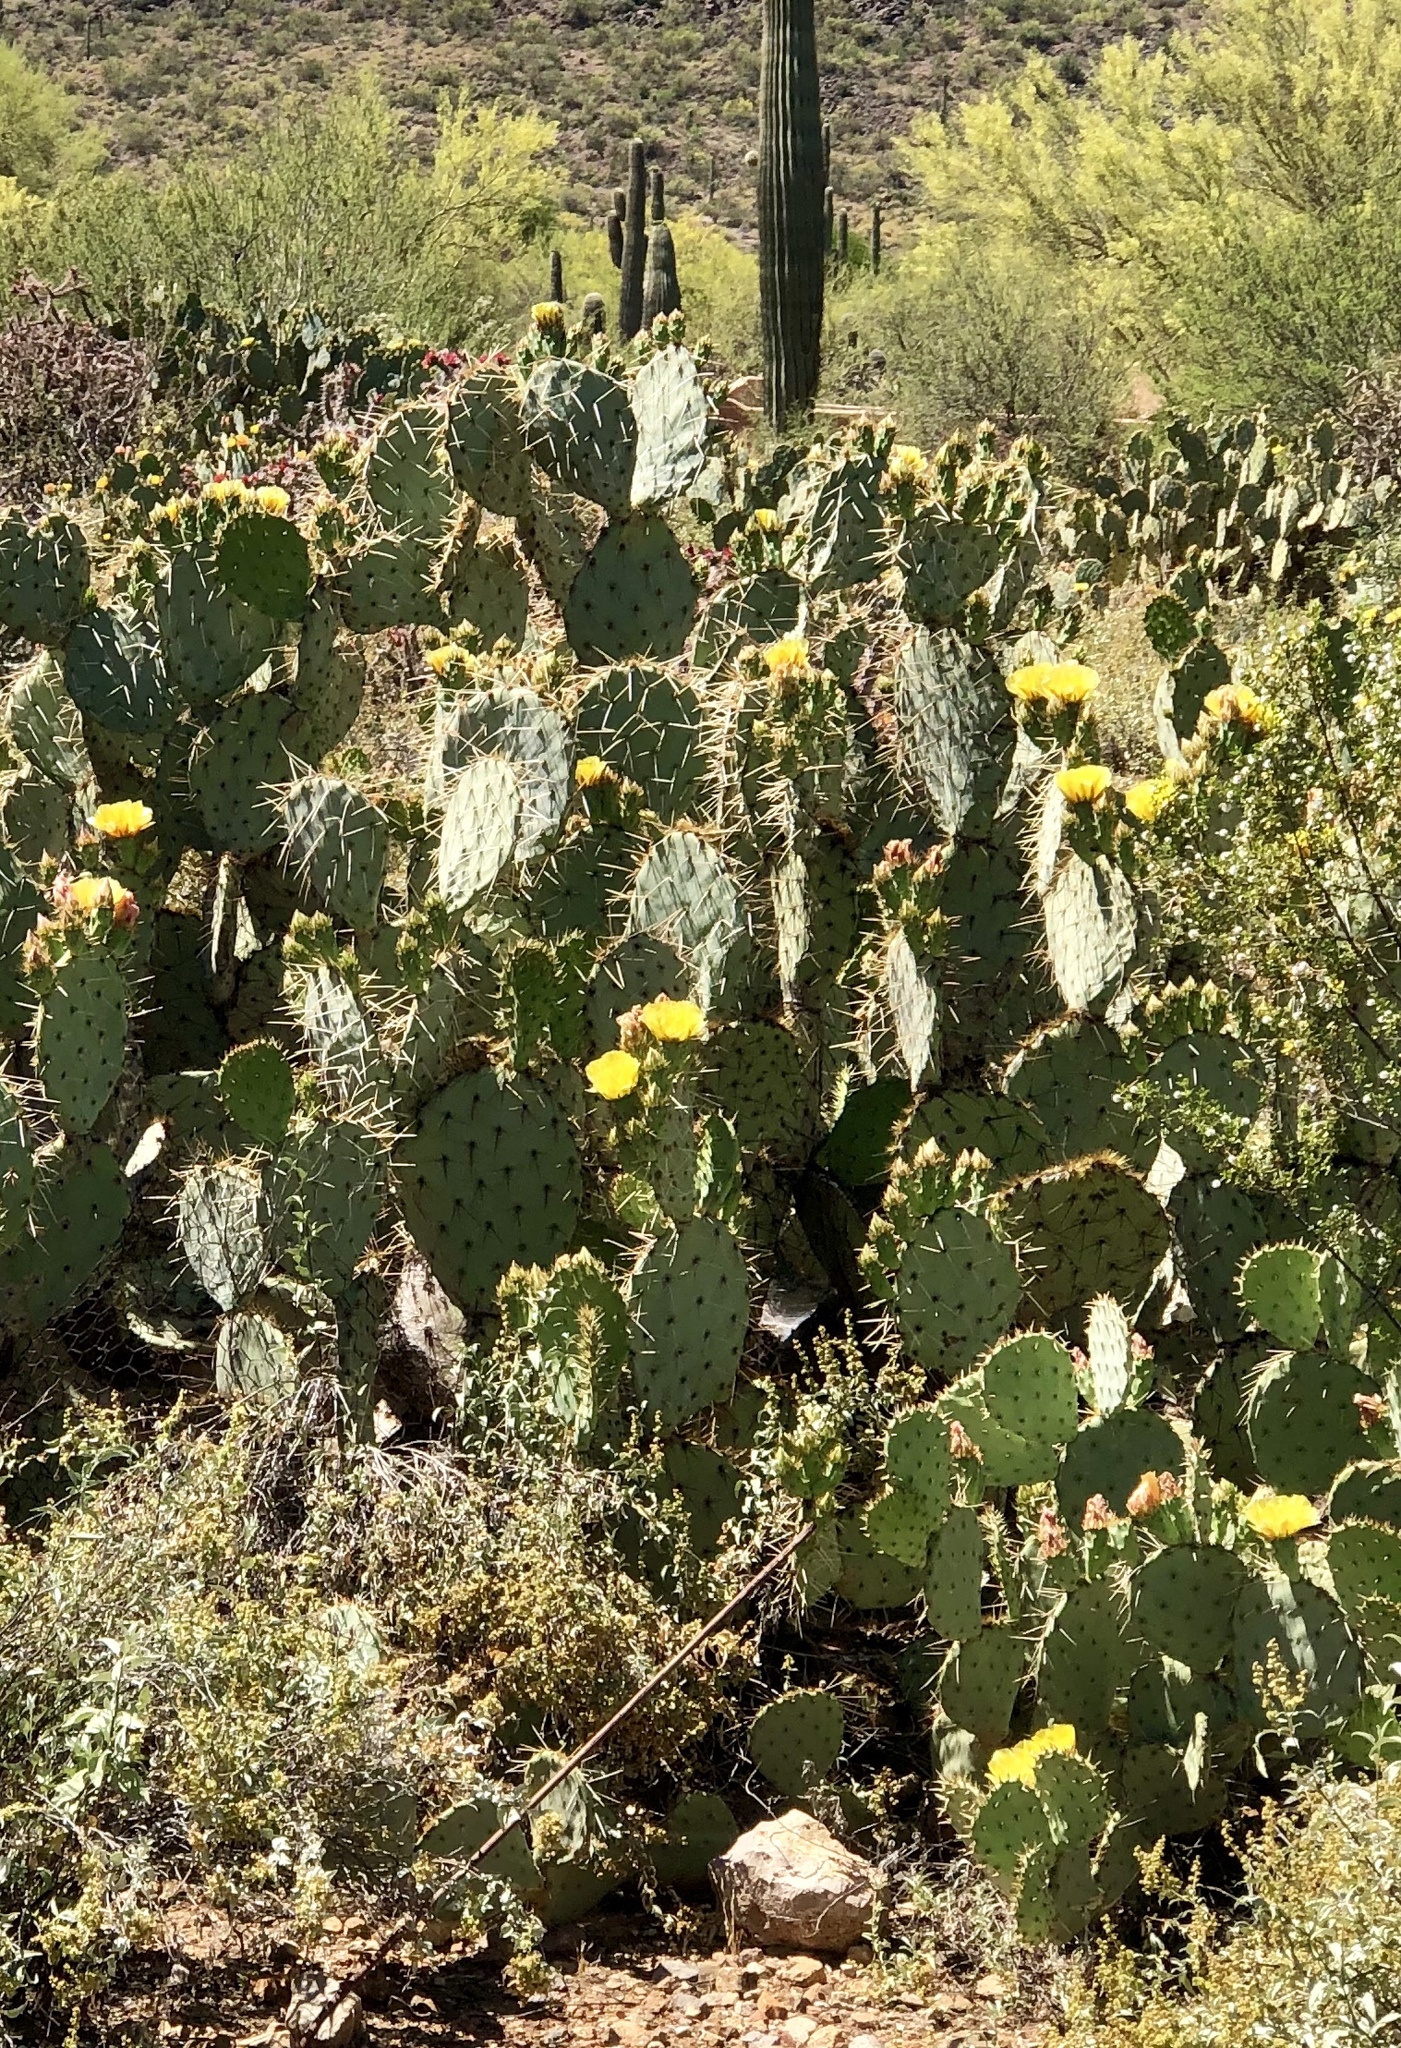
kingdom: Plantae
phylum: Tracheophyta
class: Magnoliopsida
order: Caryophyllales
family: Cactaceae
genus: Opuntia
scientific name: Opuntia engelmannii
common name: Cactus-apple
